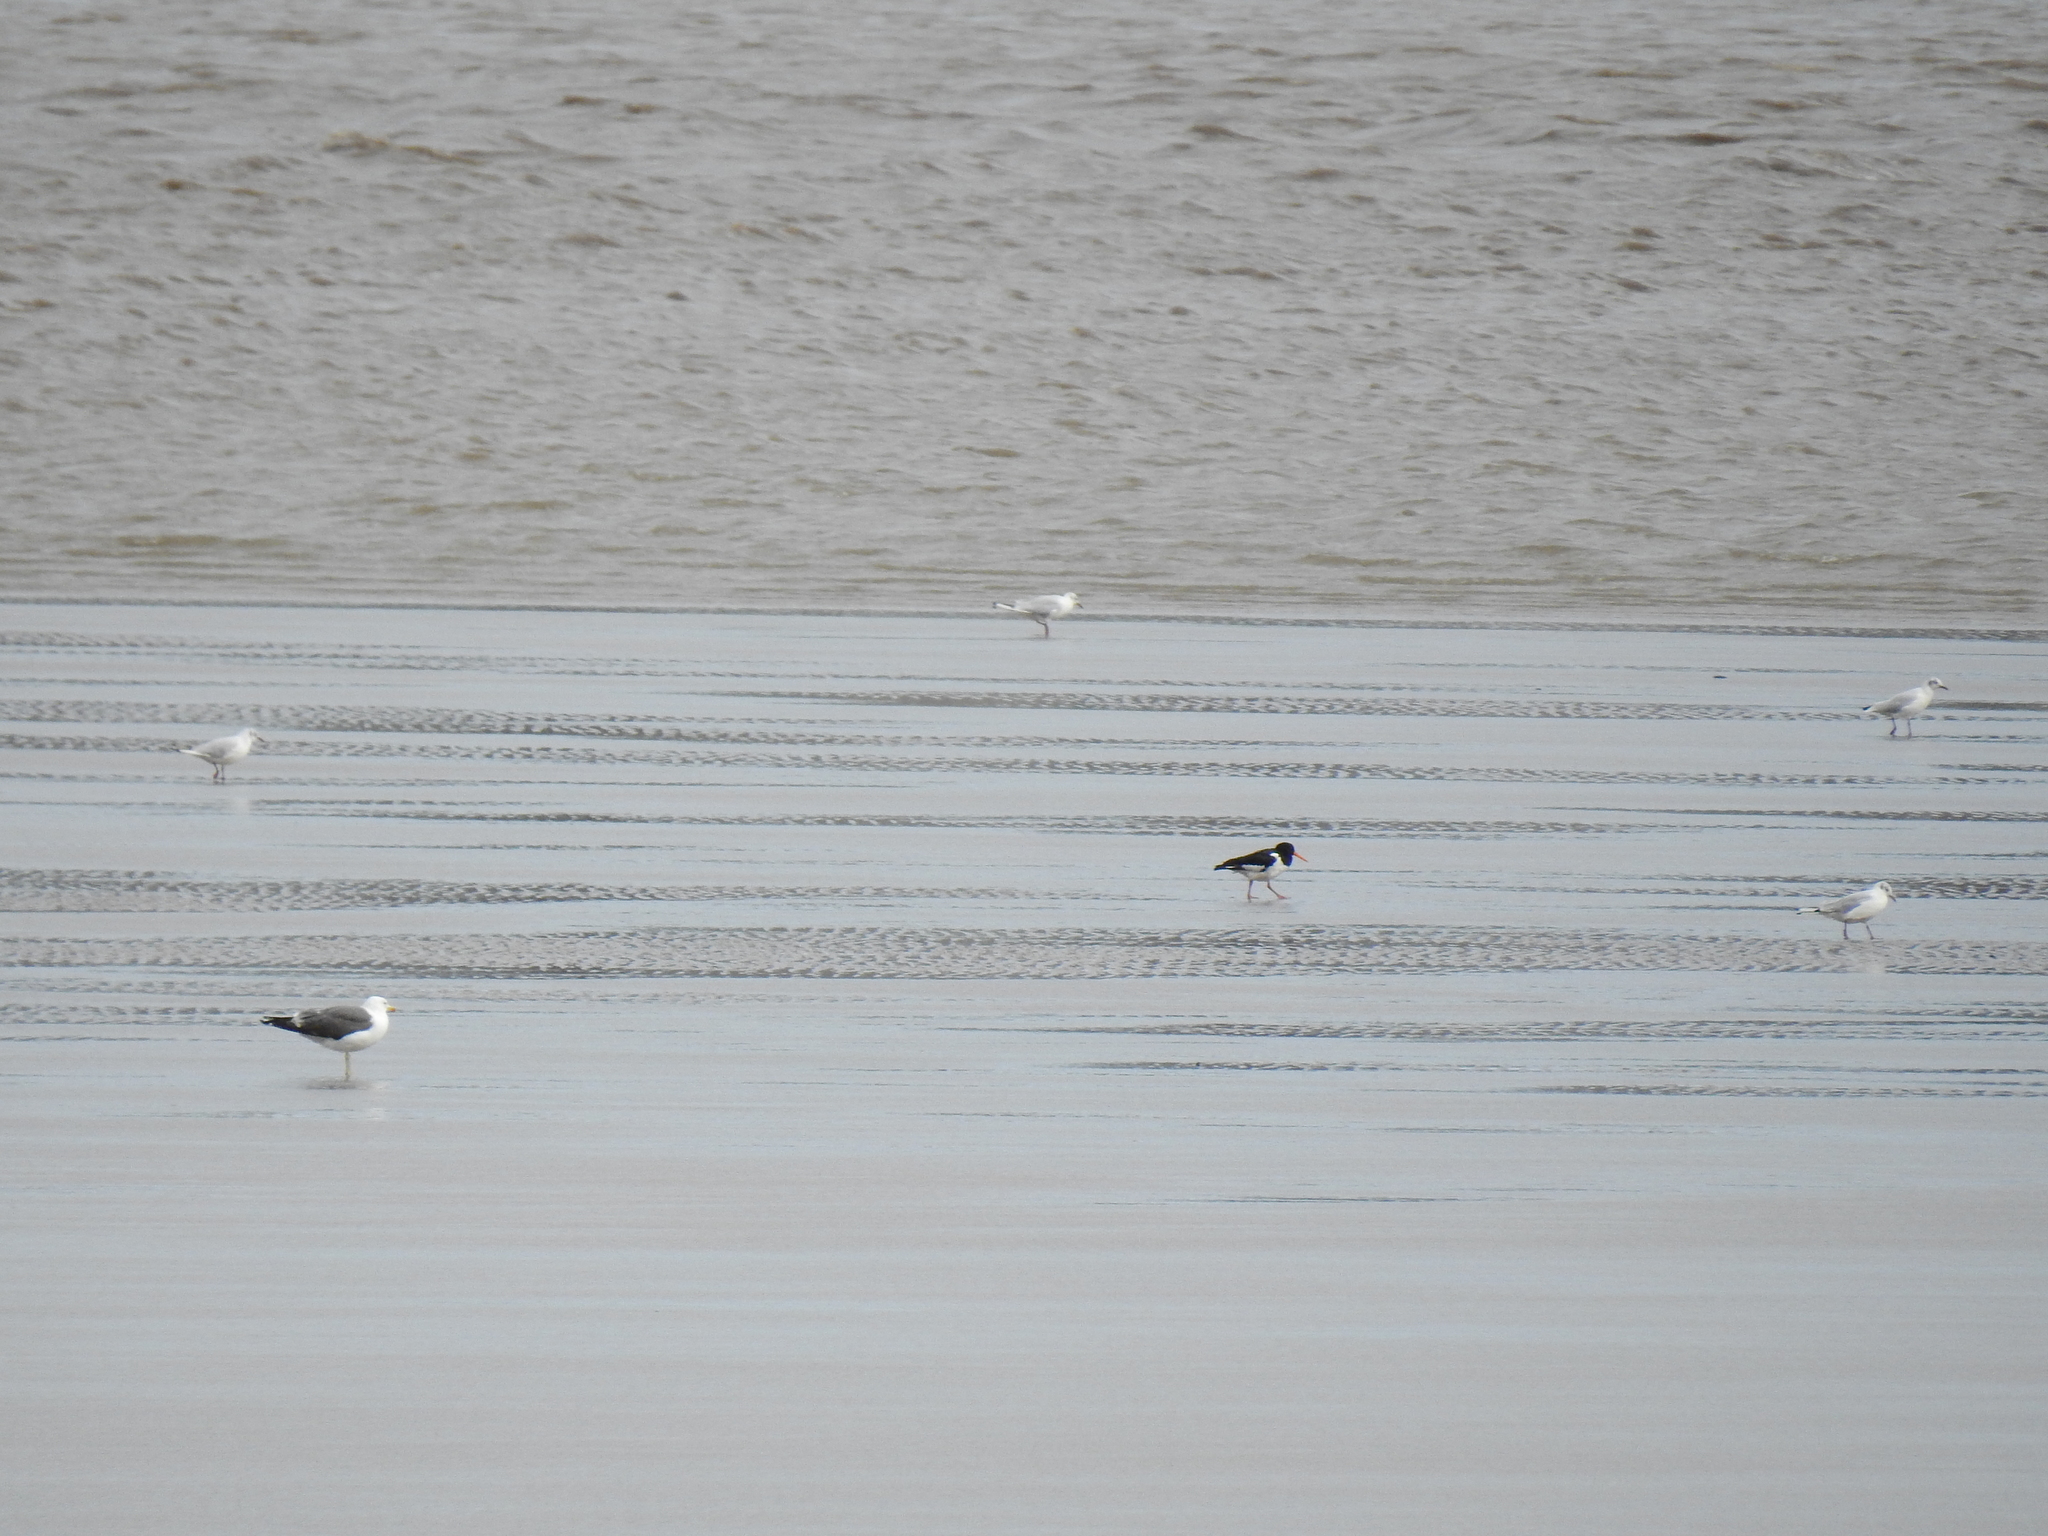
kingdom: Animalia
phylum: Chordata
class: Aves
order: Charadriiformes
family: Haematopodidae
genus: Haematopus
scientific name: Haematopus ostralegus
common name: Eurasian oystercatcher
